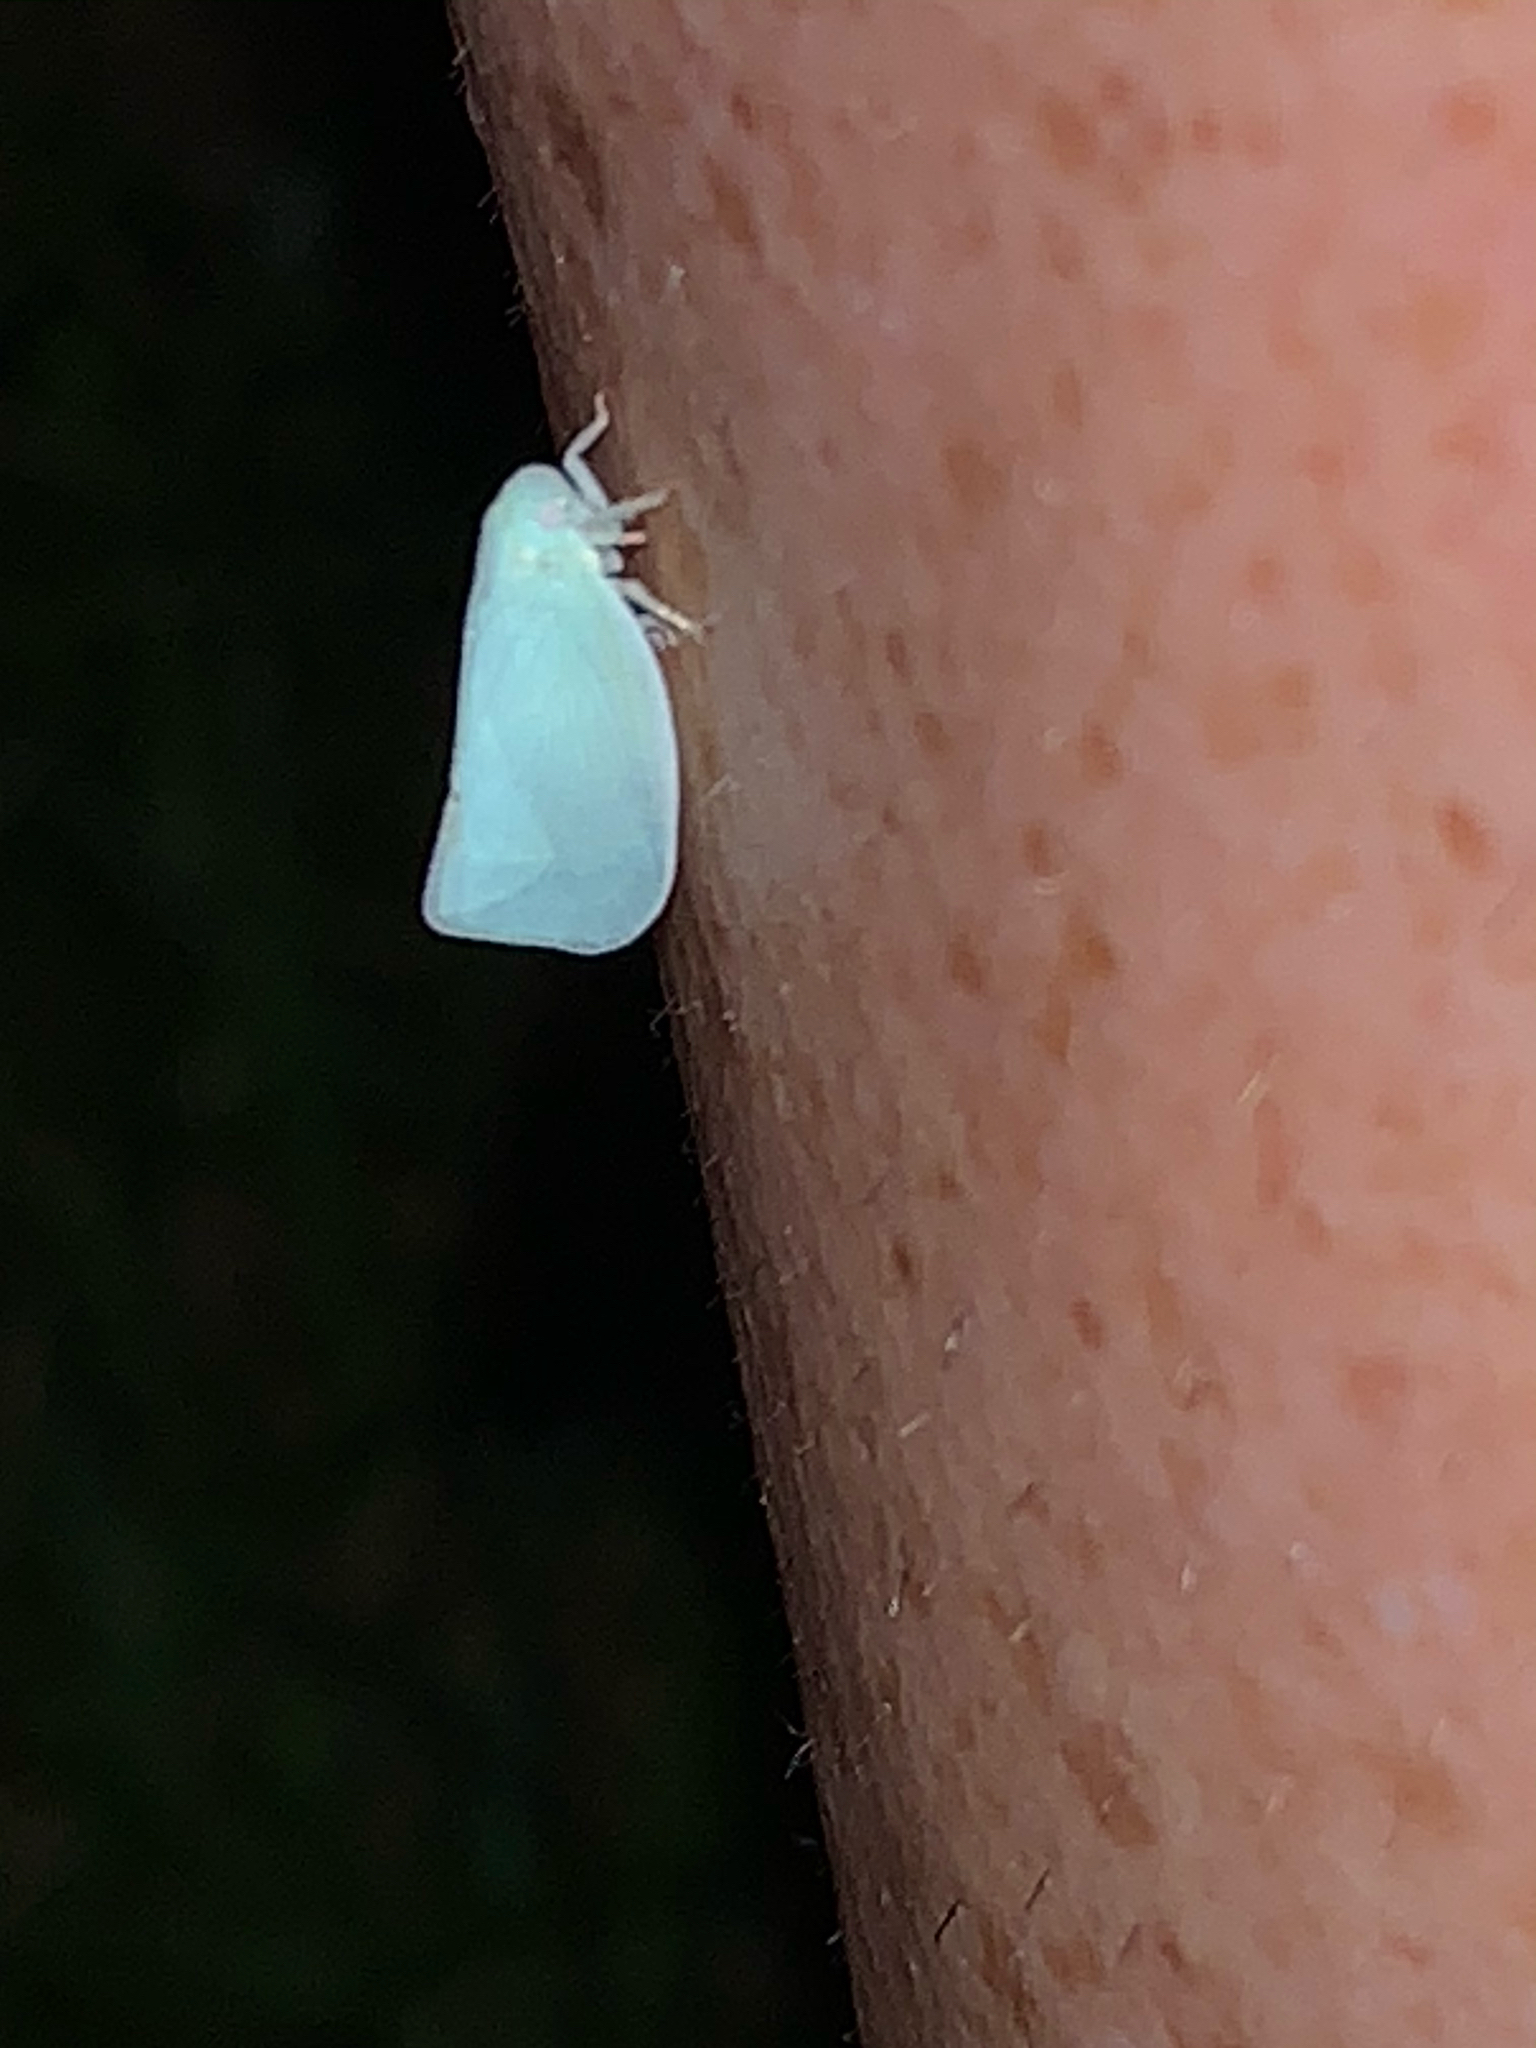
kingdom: Animalia
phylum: Arthropoda
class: Insecta
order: Hemiptera
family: Flatidae
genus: Flatormenis
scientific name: Flatormenis proxima
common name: Northern flatid planthopper
